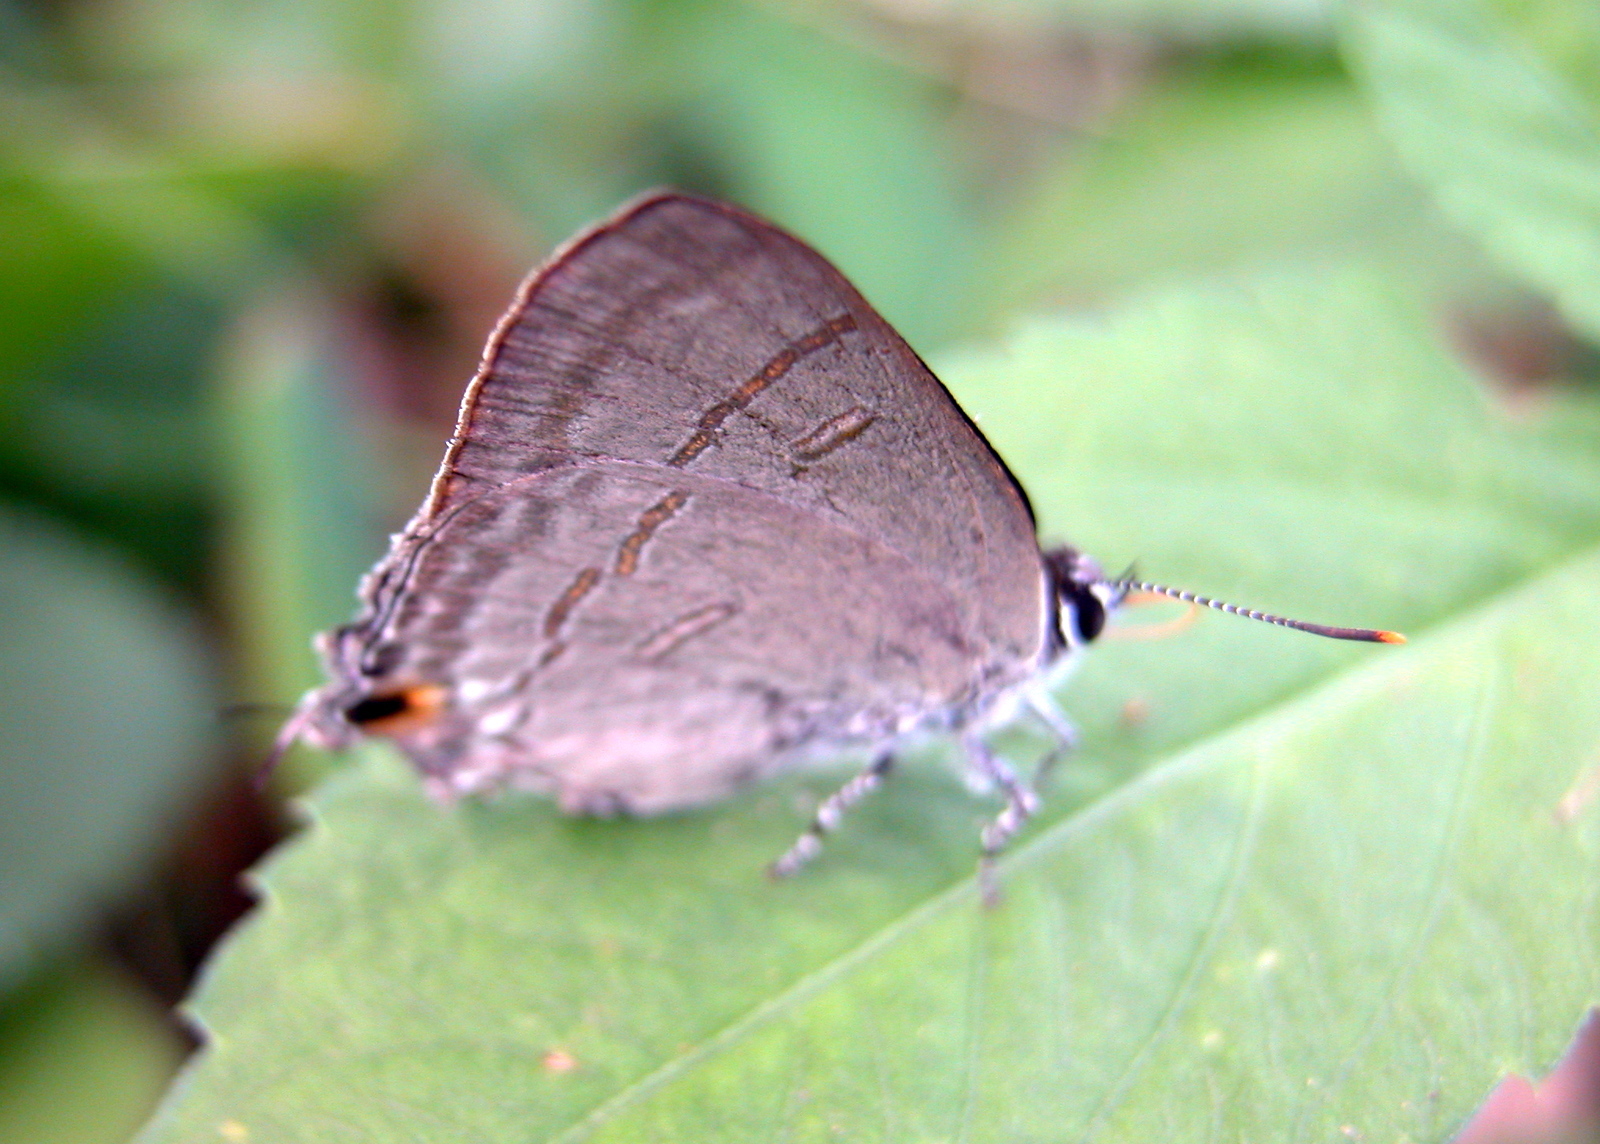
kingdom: Animalia
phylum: Arthropoda
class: Insecta
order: Lepidoptera
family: Lycaenidae
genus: Hypolycaena
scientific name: Hypolycaena erylus
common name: Common tit
